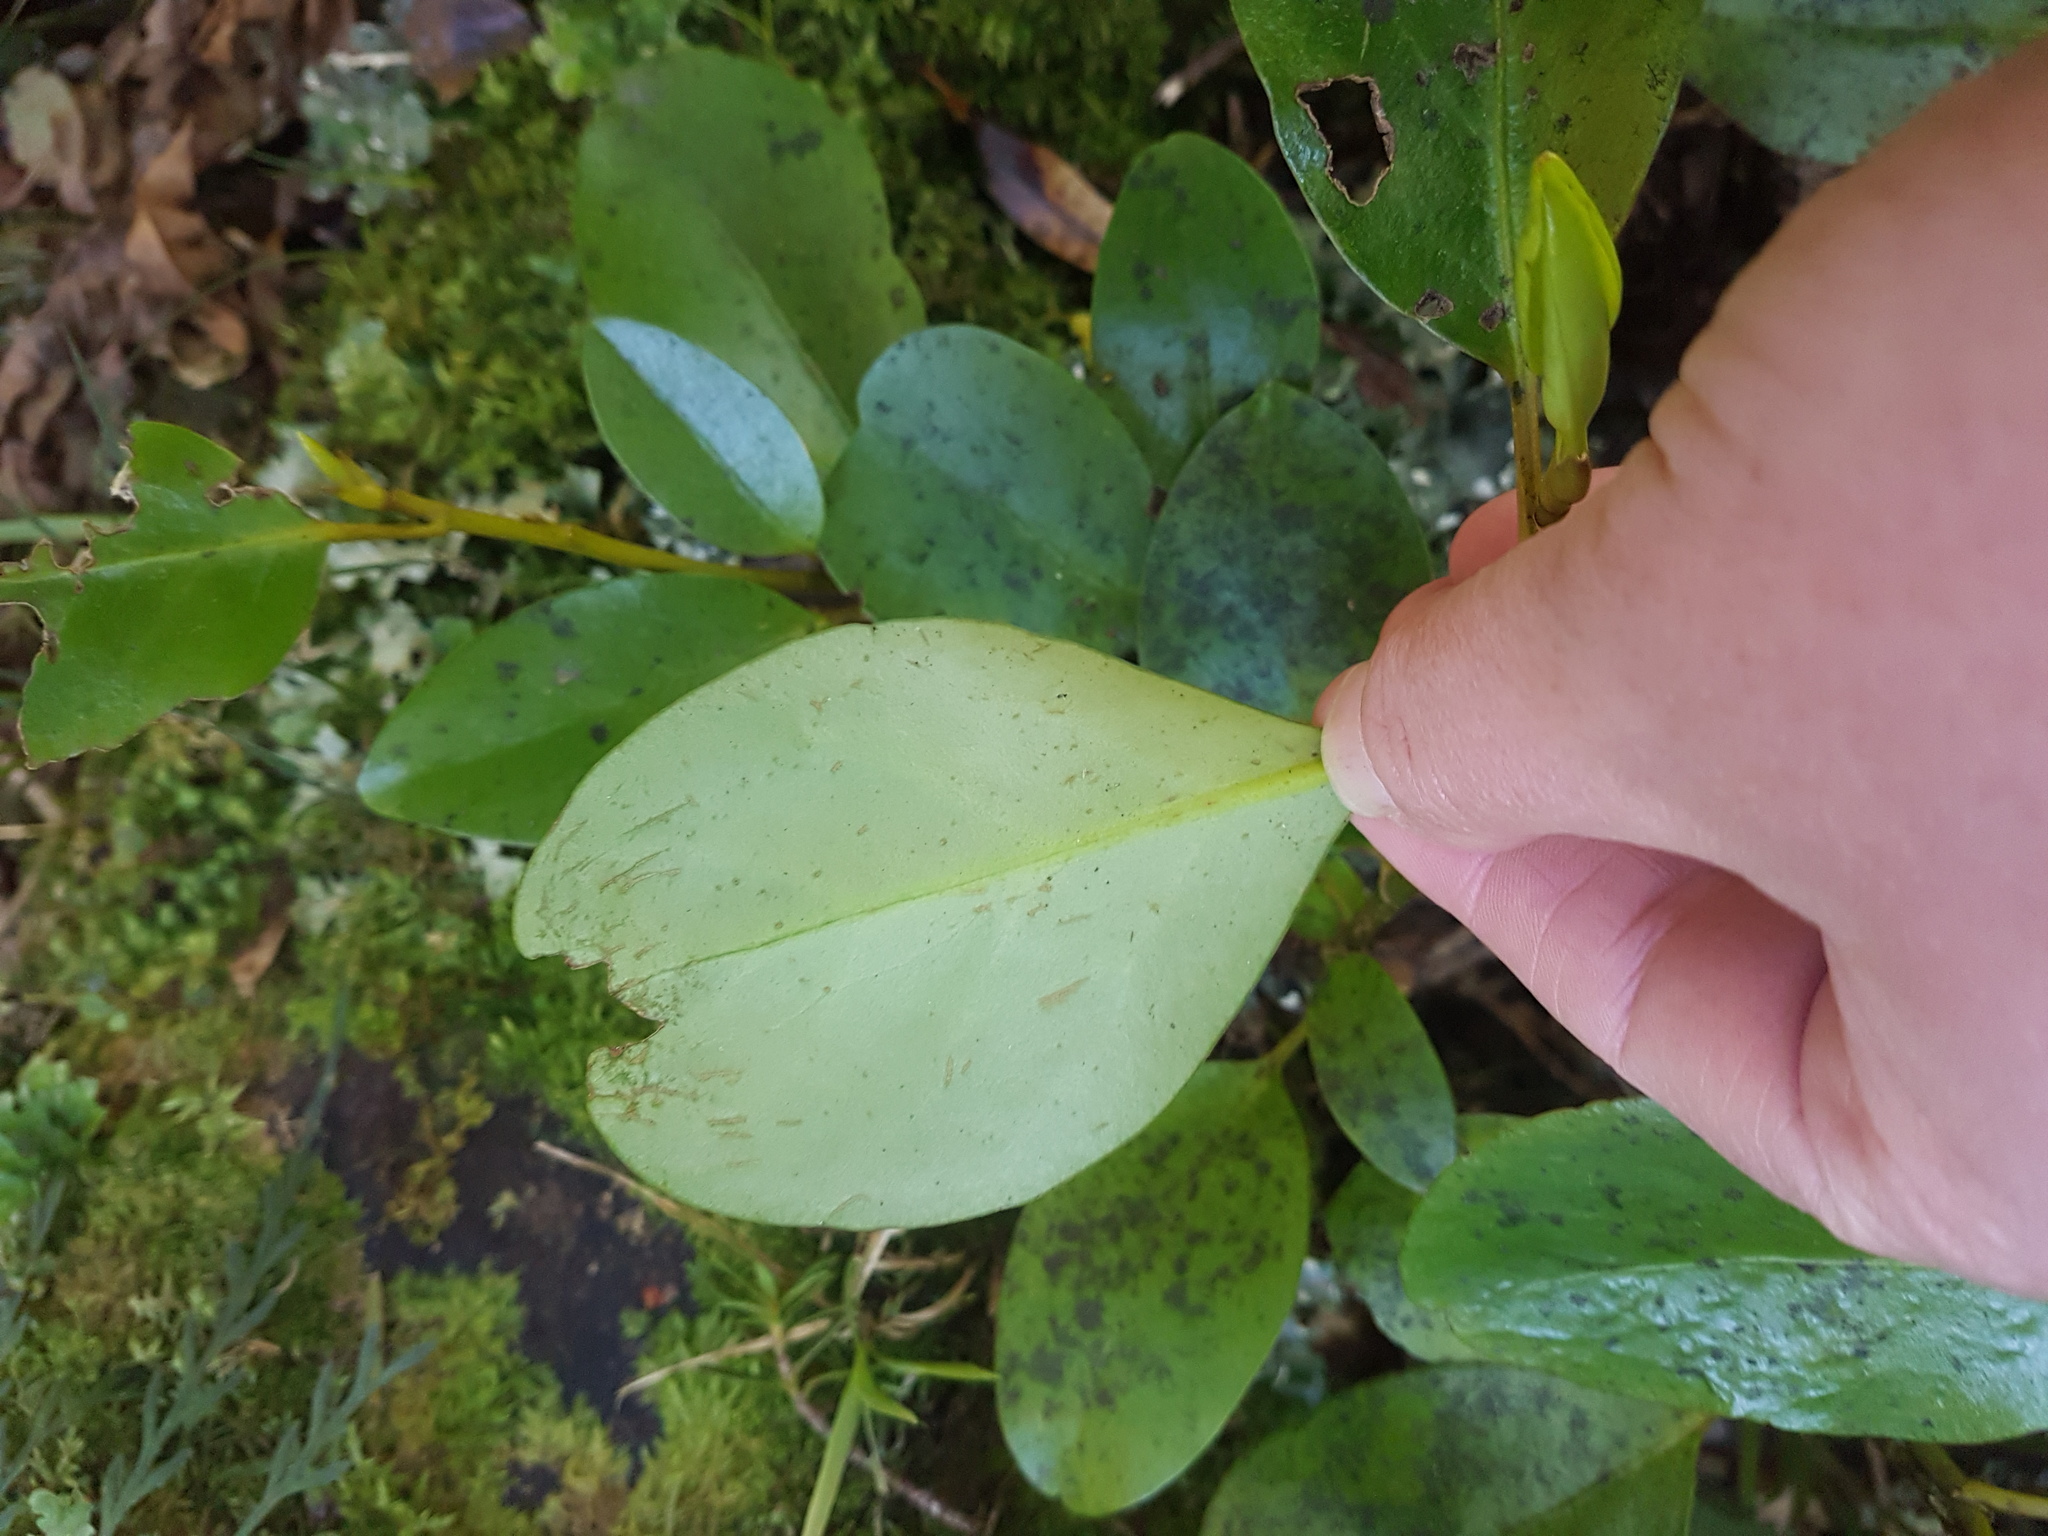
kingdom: Plantae
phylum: Tracheophyta
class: Magnoliopsida
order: Apiales
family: Griseliniaceae
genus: Griselinia
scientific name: Griselinia littoralis
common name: New zealand broadleaf
